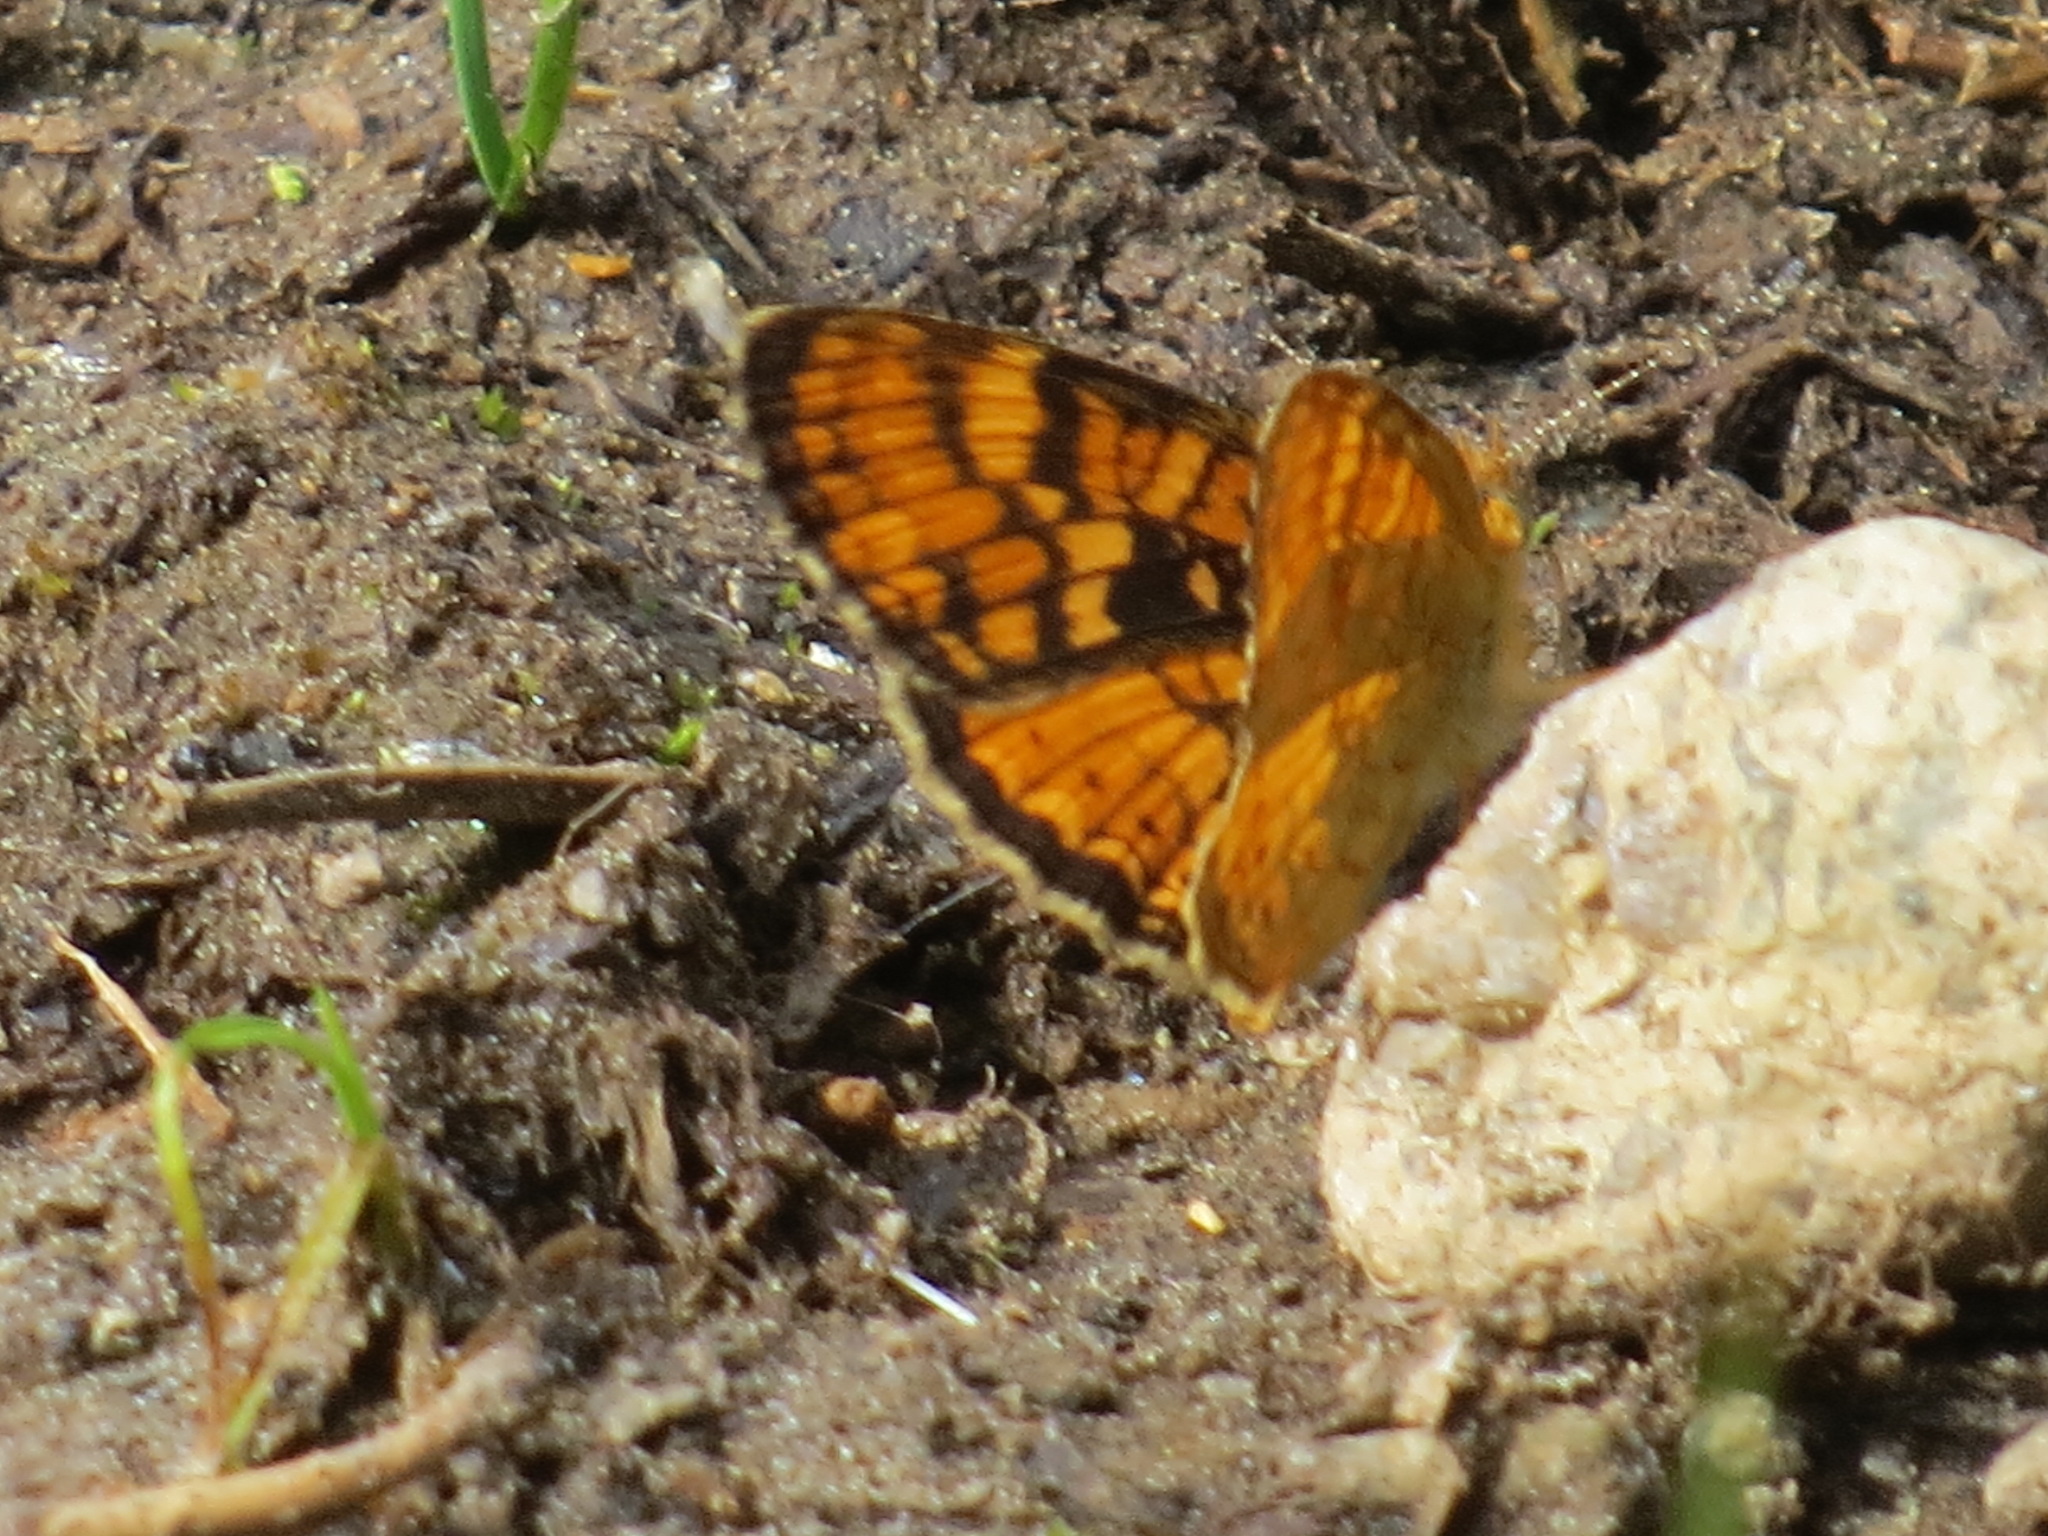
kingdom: Animalia
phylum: Arthropoda
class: Insecta
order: Lepidoptera
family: Nymphalidae
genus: Phyciodes
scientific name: Phyciodes orseis
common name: California crescent
